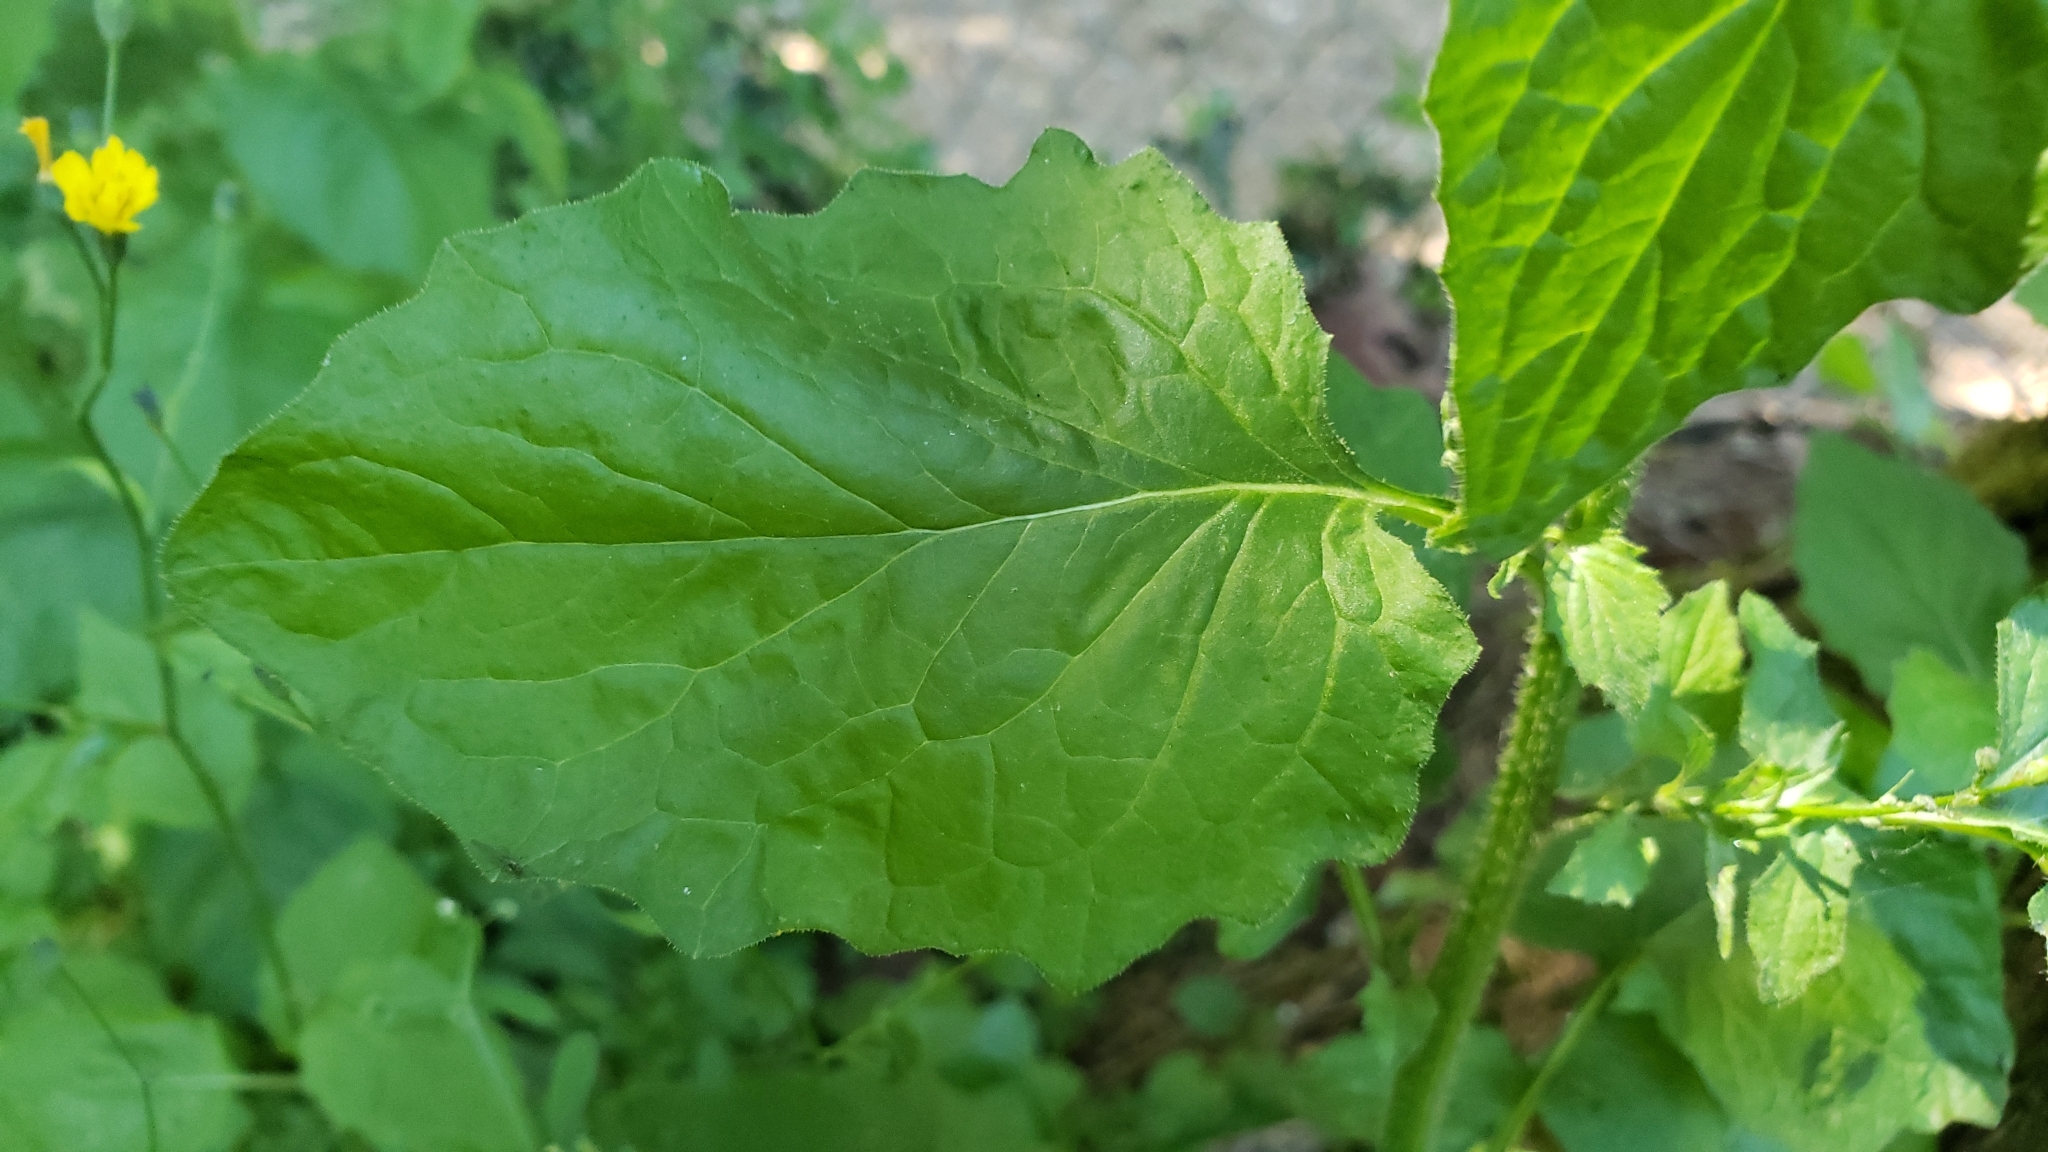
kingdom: Plantae
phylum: Tracheophyta
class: Magnoliopsida
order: Asterales
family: Asteraceae
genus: Lapsana
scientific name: Lapsana communis
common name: Nipplewort
